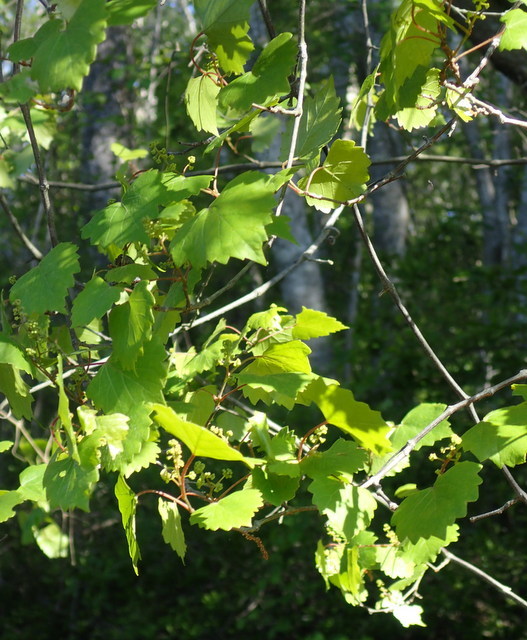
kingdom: Plantae
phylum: Tracheophyta
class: Magnoliopsida
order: Vitales
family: Vitaceae
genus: Vitis
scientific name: Vitis rotundifolia
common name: Muscadine grape
